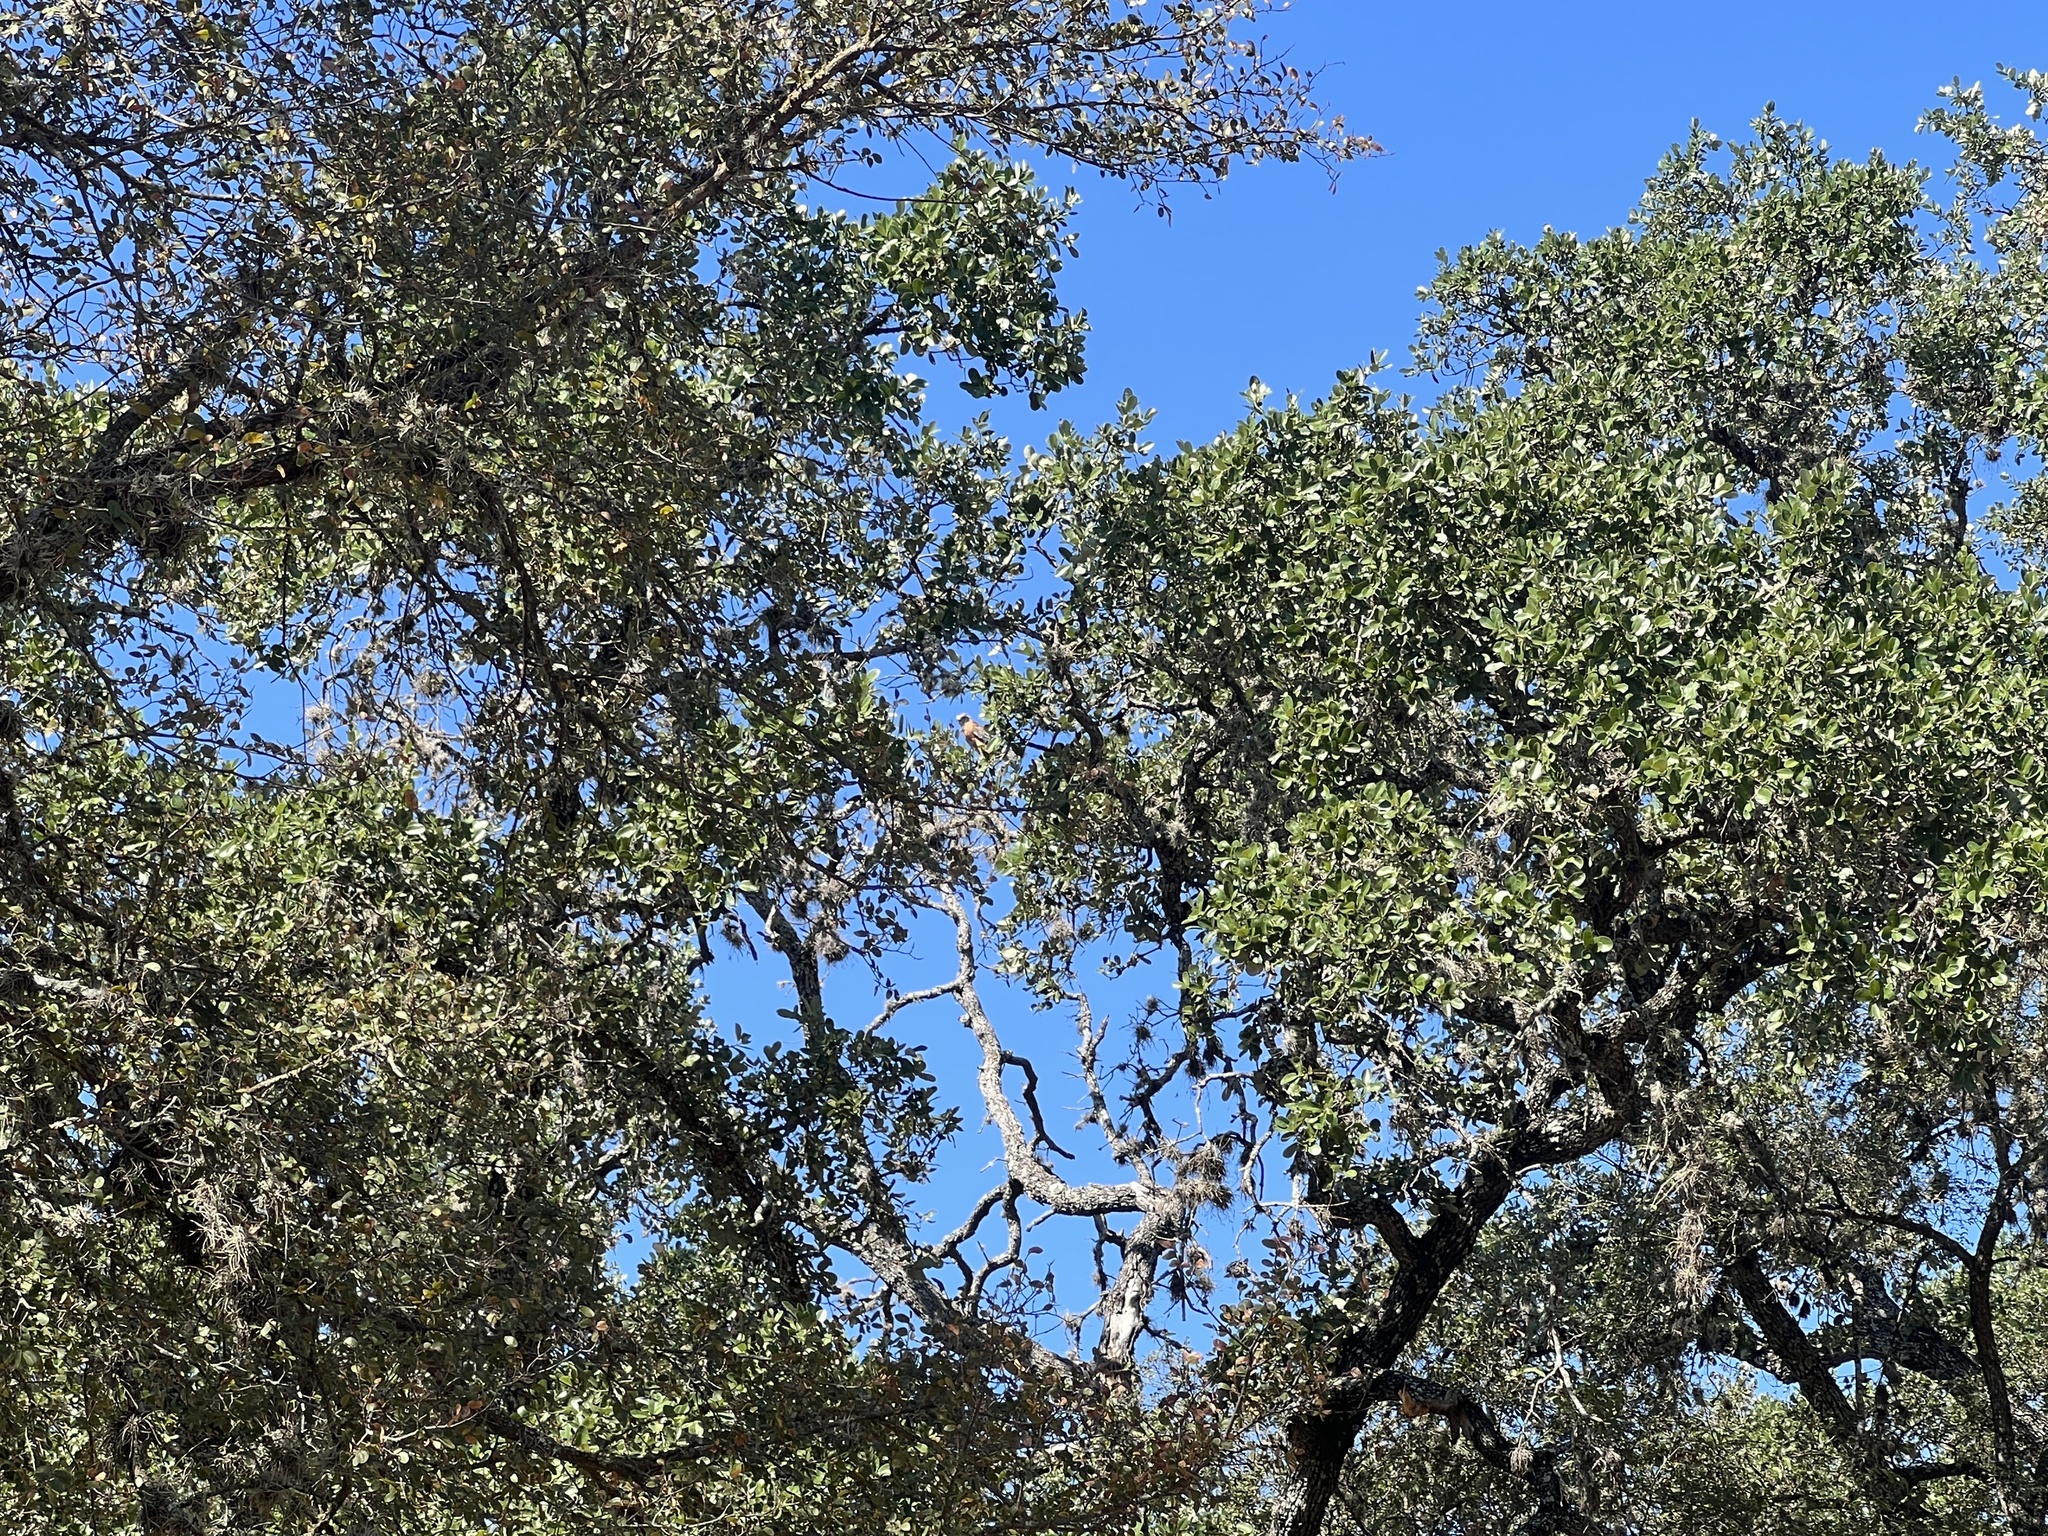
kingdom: Animalia
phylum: Chordata
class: Aves
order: Accipitriformes
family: Accipitridae
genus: Buteo
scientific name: Buteo lineatus
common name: Red-shouldered hawk
